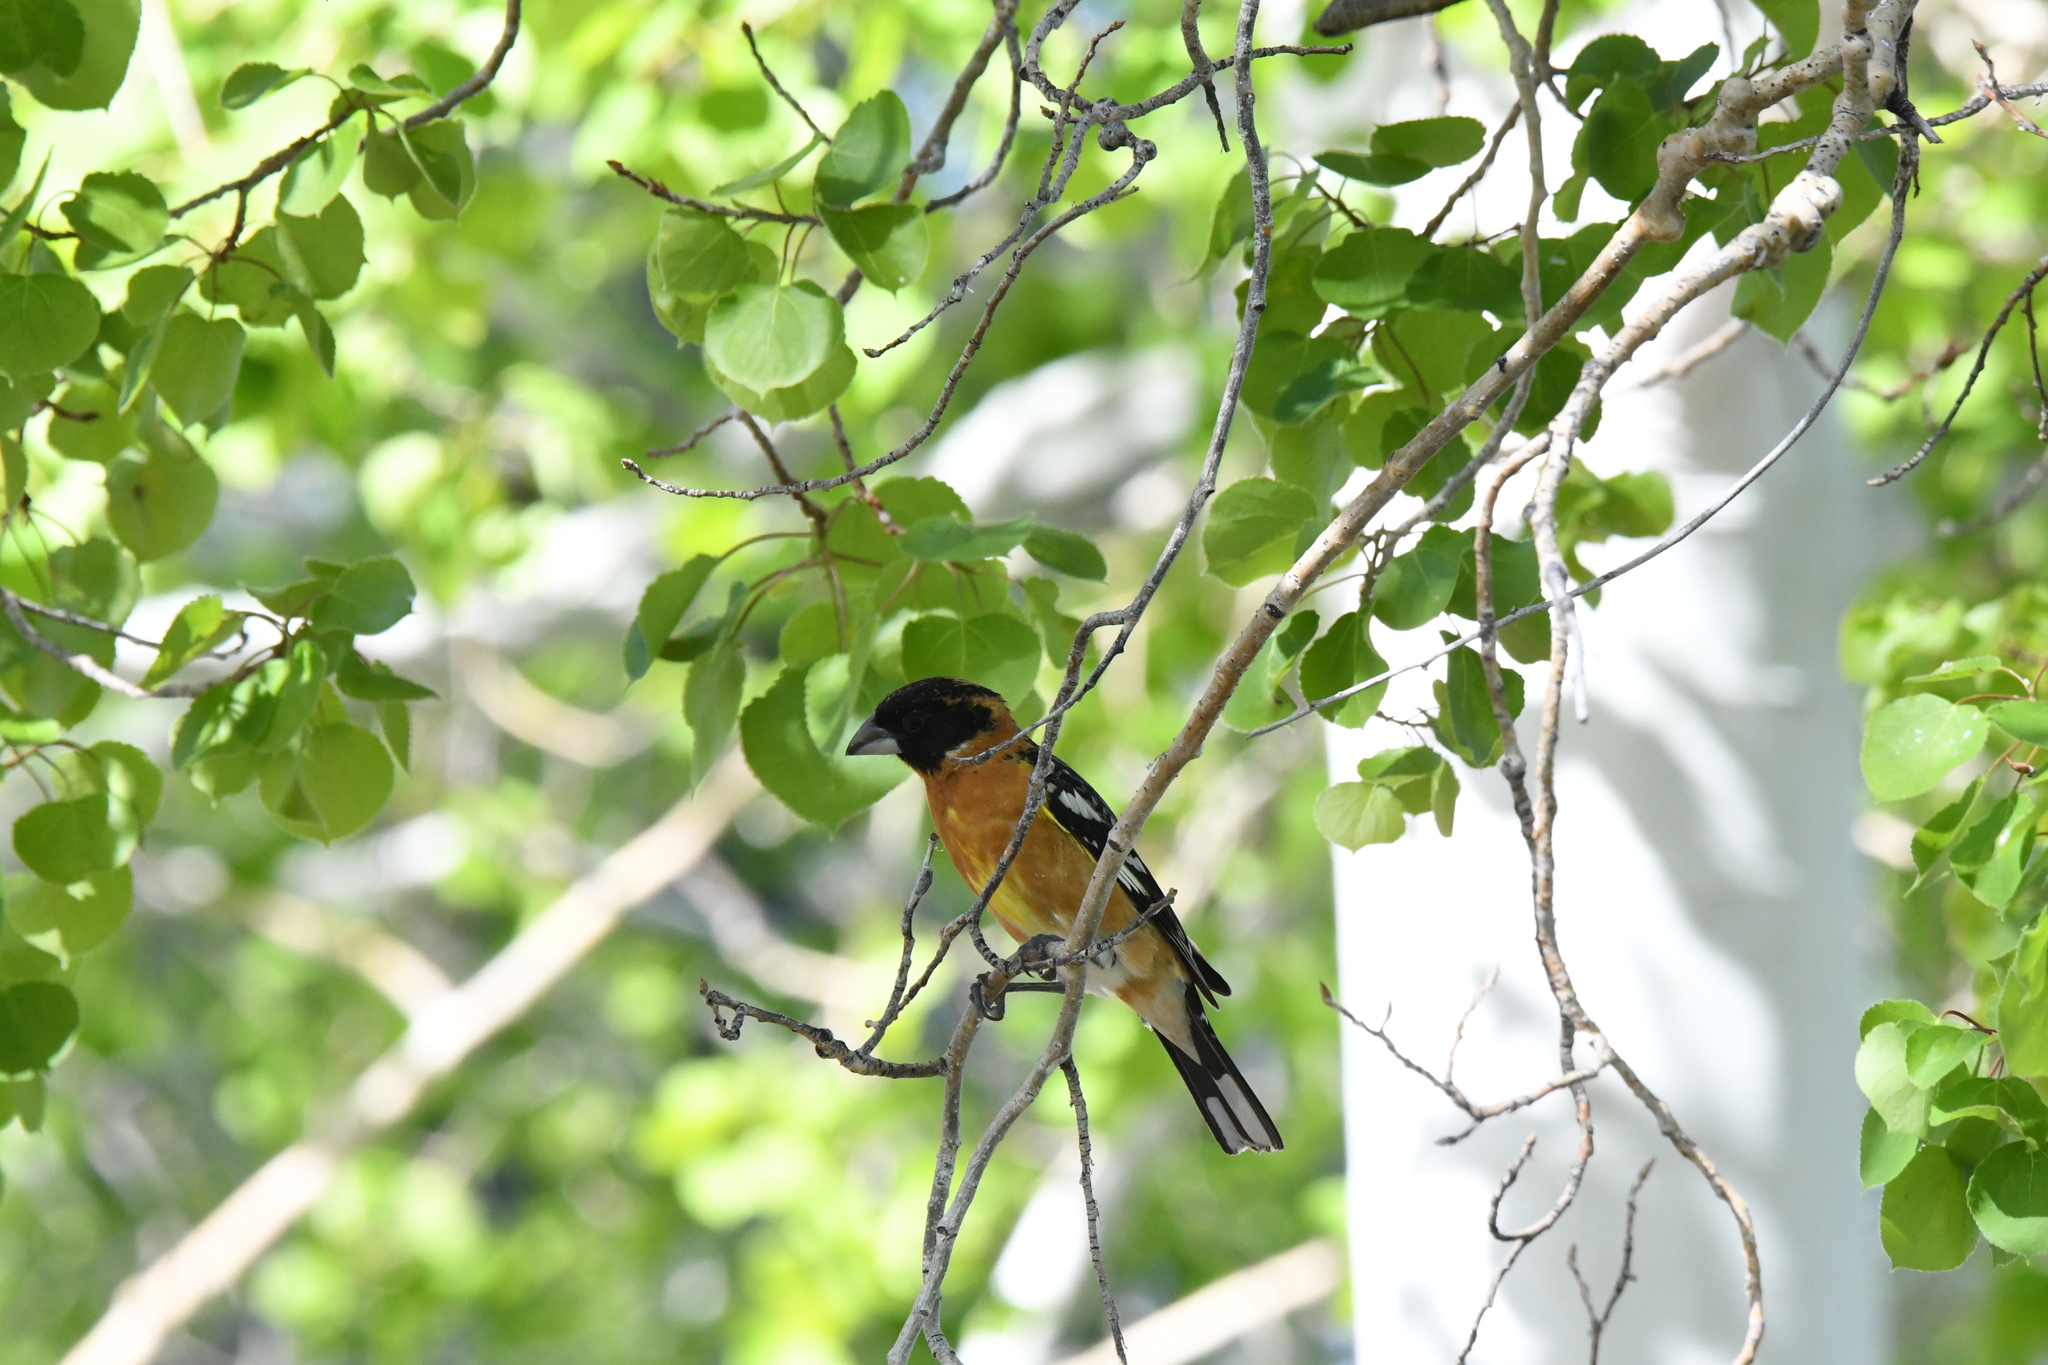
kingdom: Animalia
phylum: Chordata
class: Aves
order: Passeriformes
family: Cardinalidae
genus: Pheucticus
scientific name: Pheucticus melanocephalus
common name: Black-headed grosbeak
